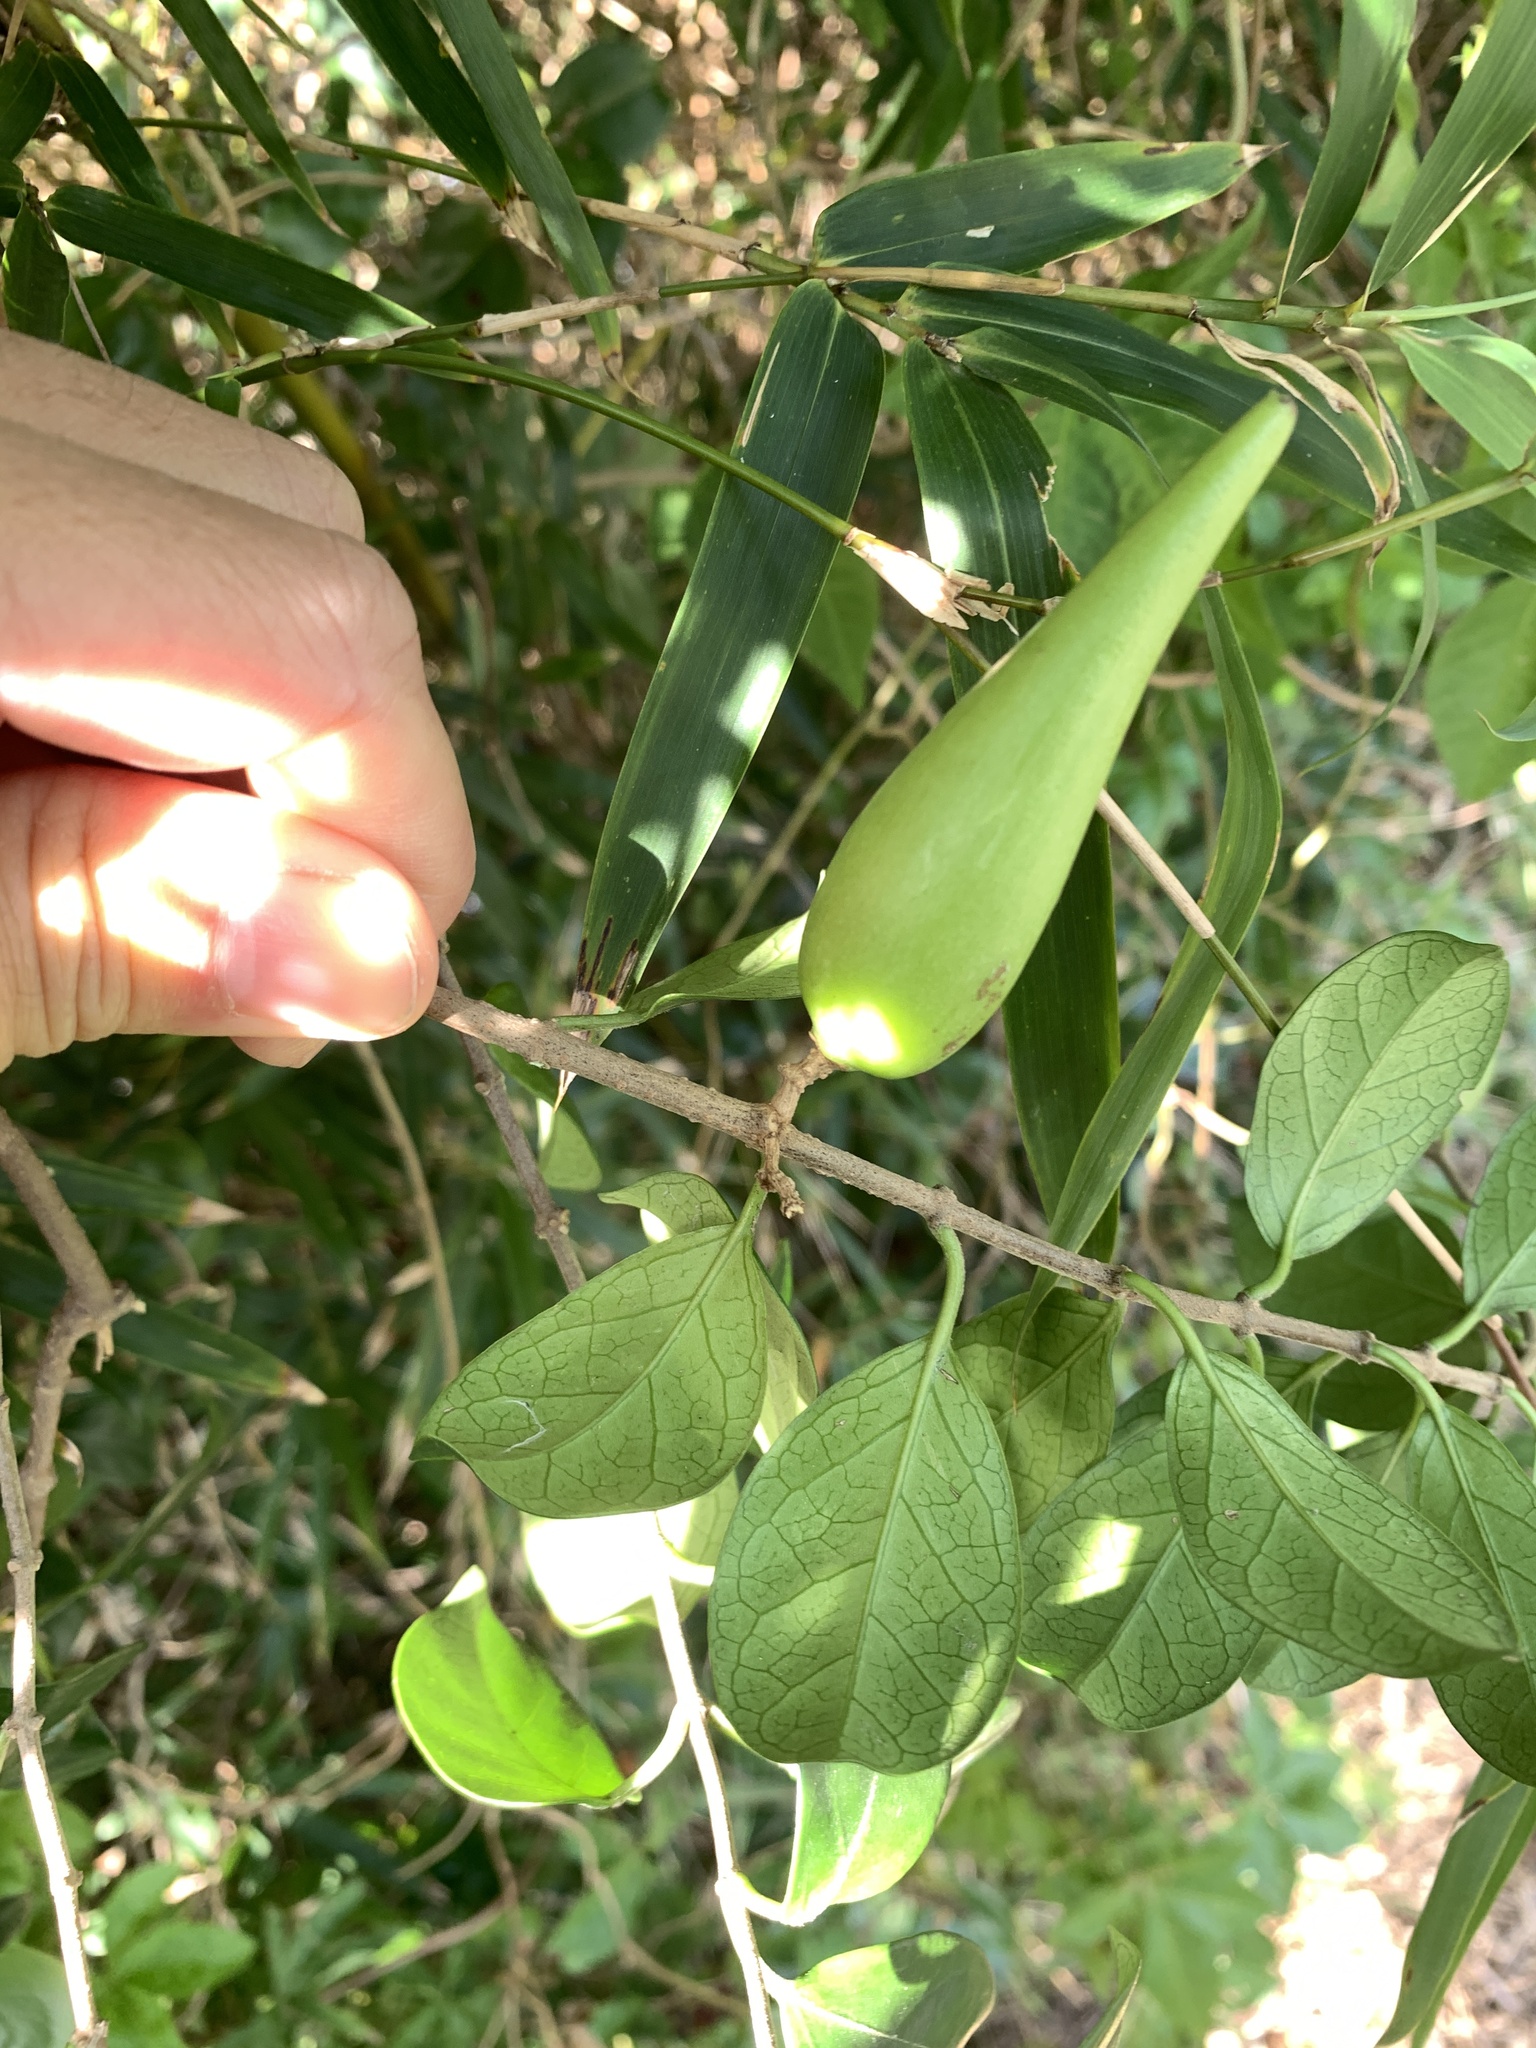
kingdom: Plantae
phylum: Tracheophyta
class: Magnoliopsida
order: Gentianales
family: Apocynaceae
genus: Gymnema
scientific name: Gymnema sylvestre
